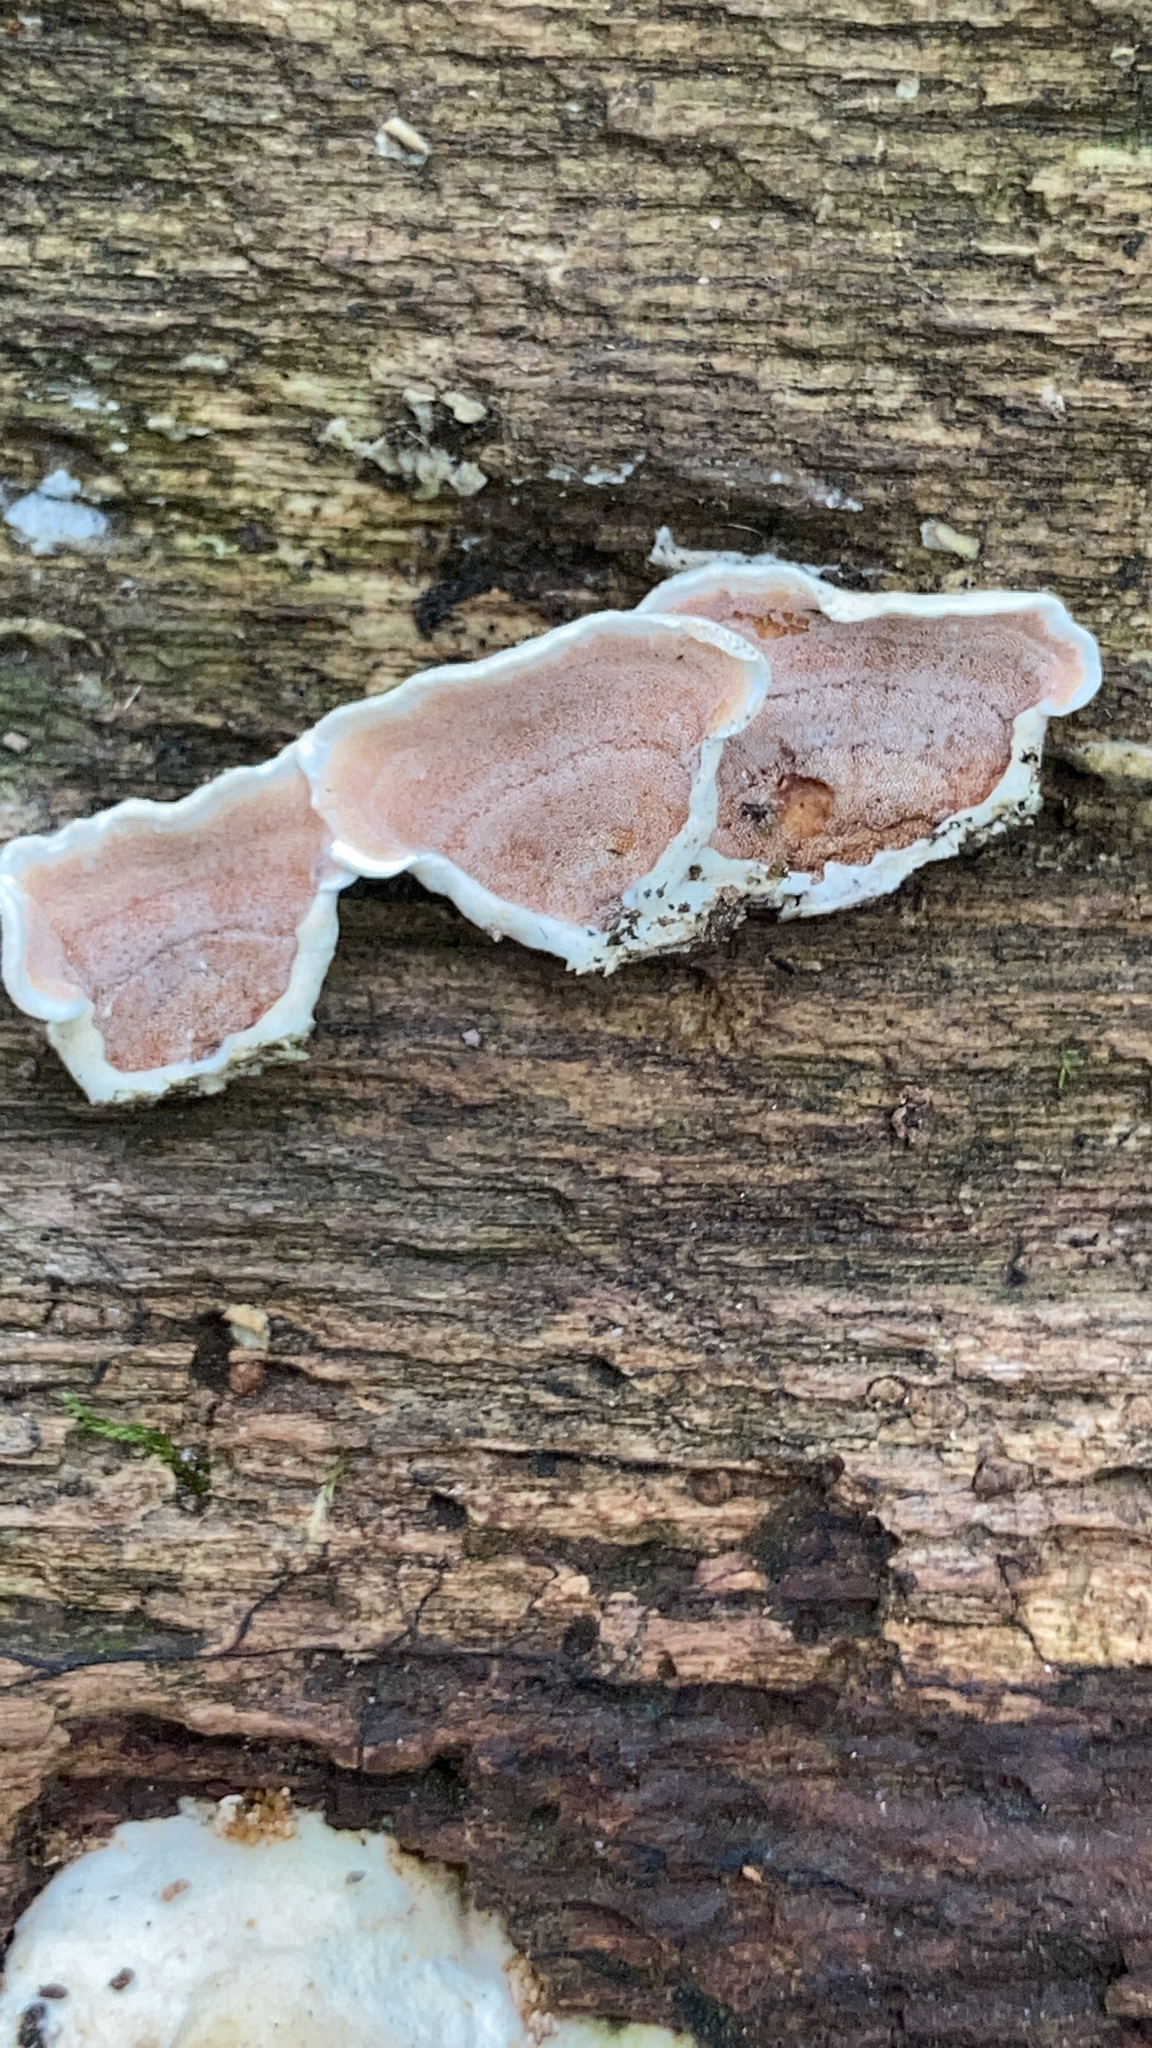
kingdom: Fungi
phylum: Basidiomycota
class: Agaricomycetes
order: Polyporales
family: Irpicaceae
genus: Vitreoporus
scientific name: Vitreoporus dichrous
